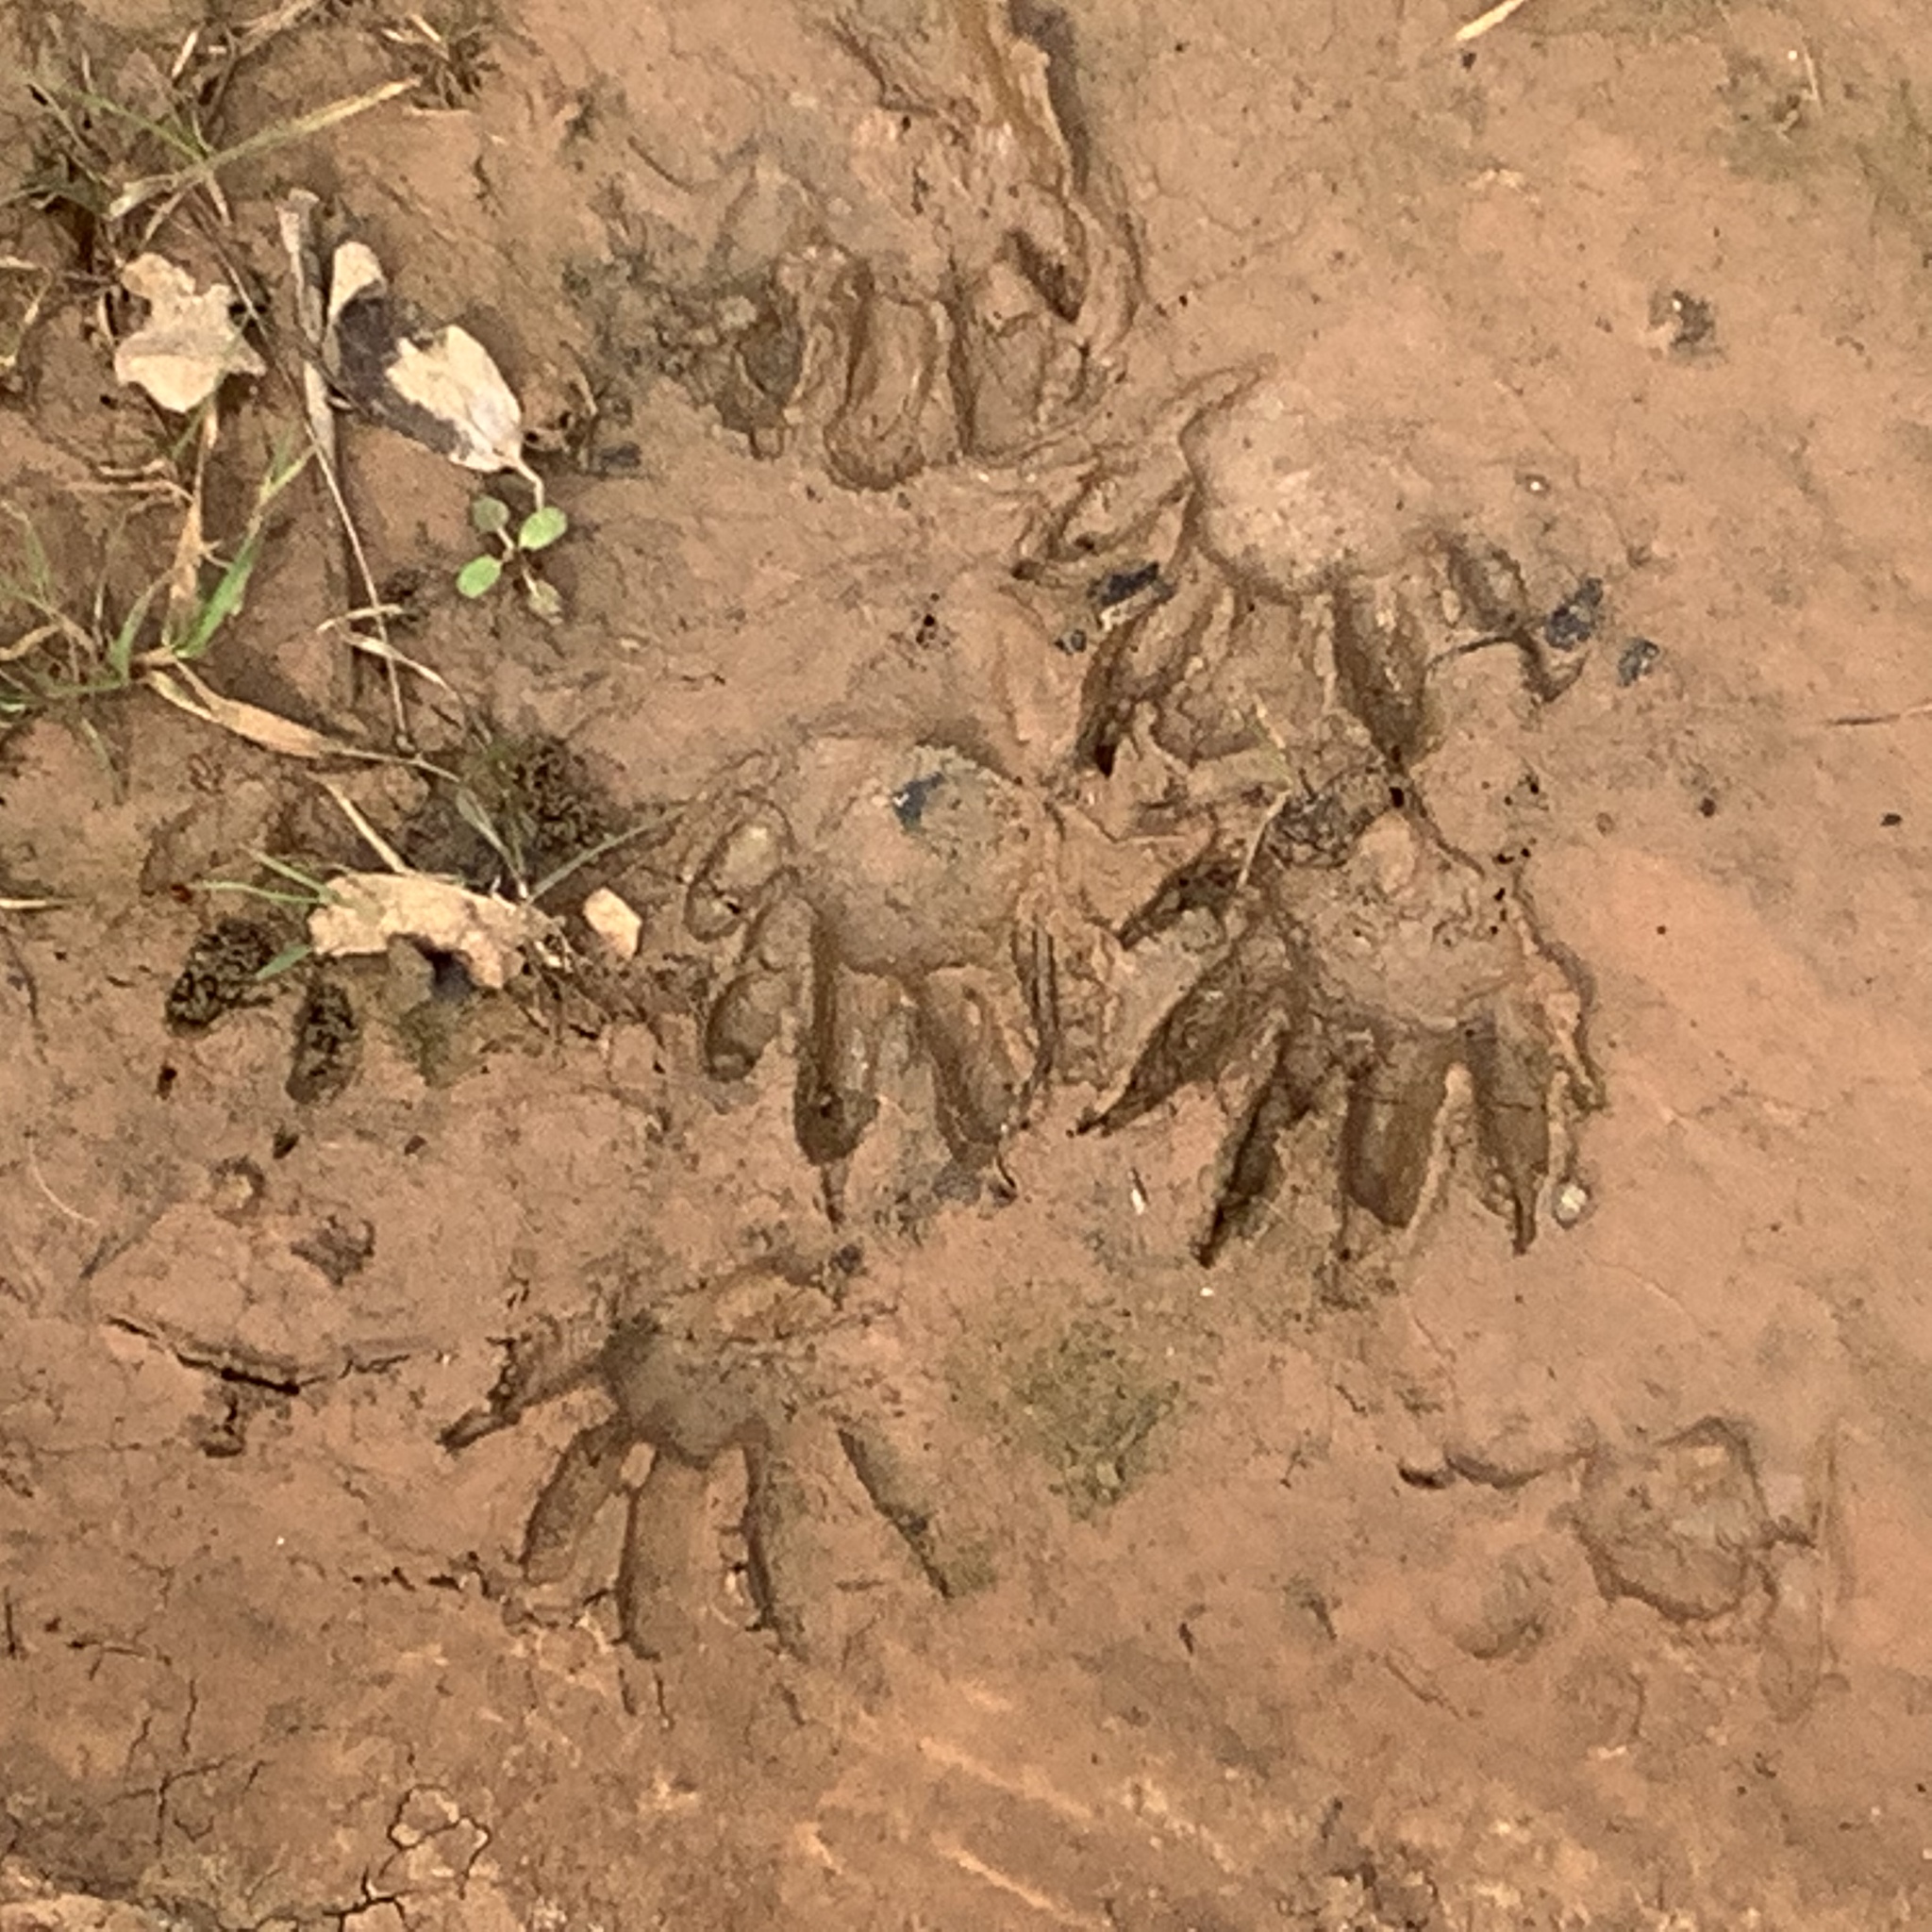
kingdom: Animalia
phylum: Chordata
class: Mammalia
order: Carnivora
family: Procyonidae
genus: Procyon
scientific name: Procyon lotor
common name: Raccoon
